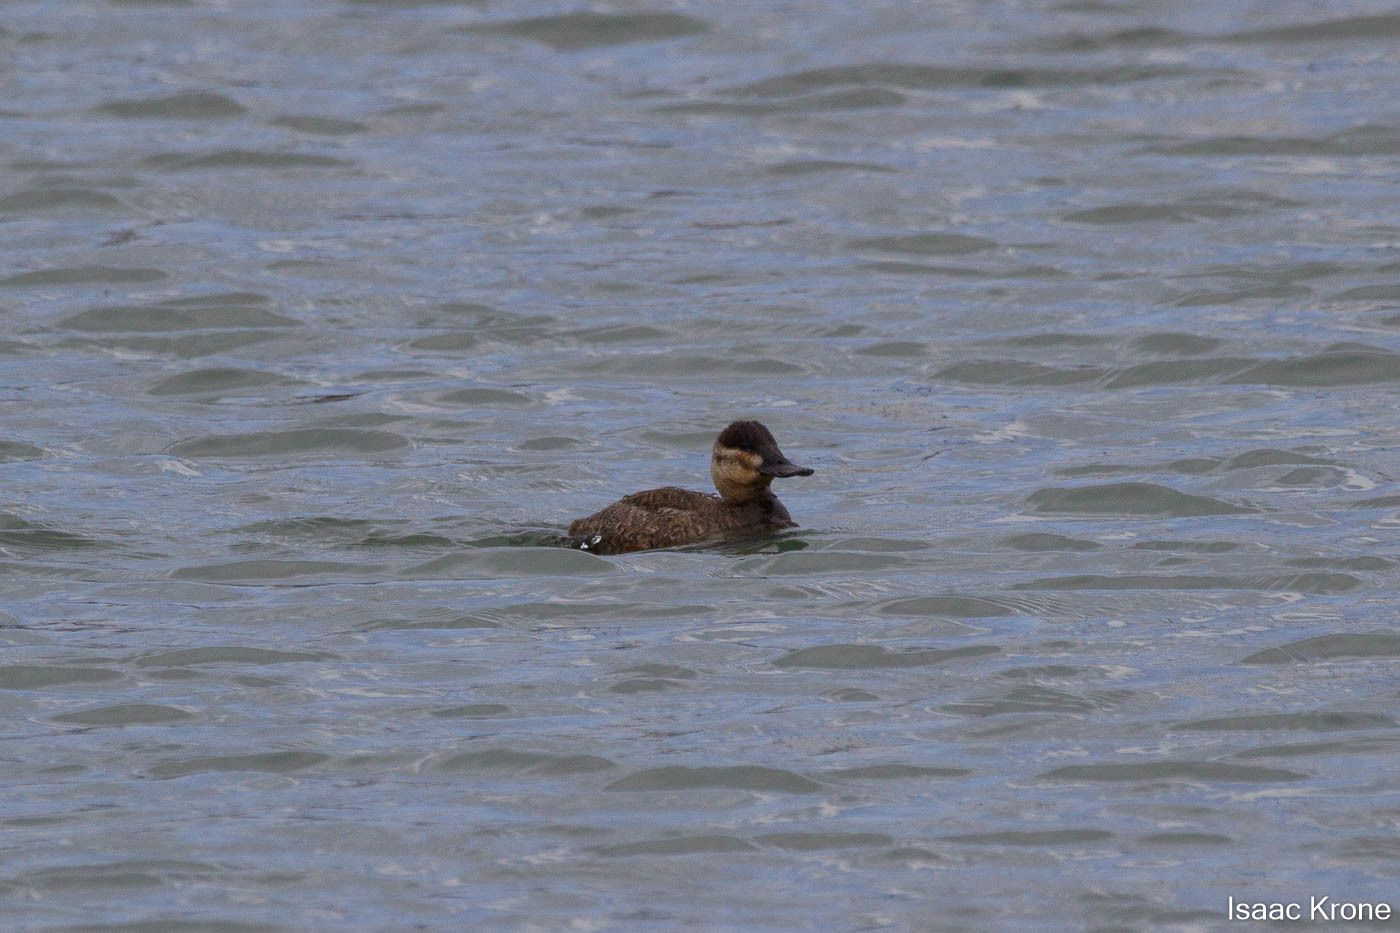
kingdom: Animalia
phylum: Chordata
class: Aves
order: Anseriformes
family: Anatidae
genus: Oxyura
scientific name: Oxyura jamaicensis
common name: Ruddy duck
